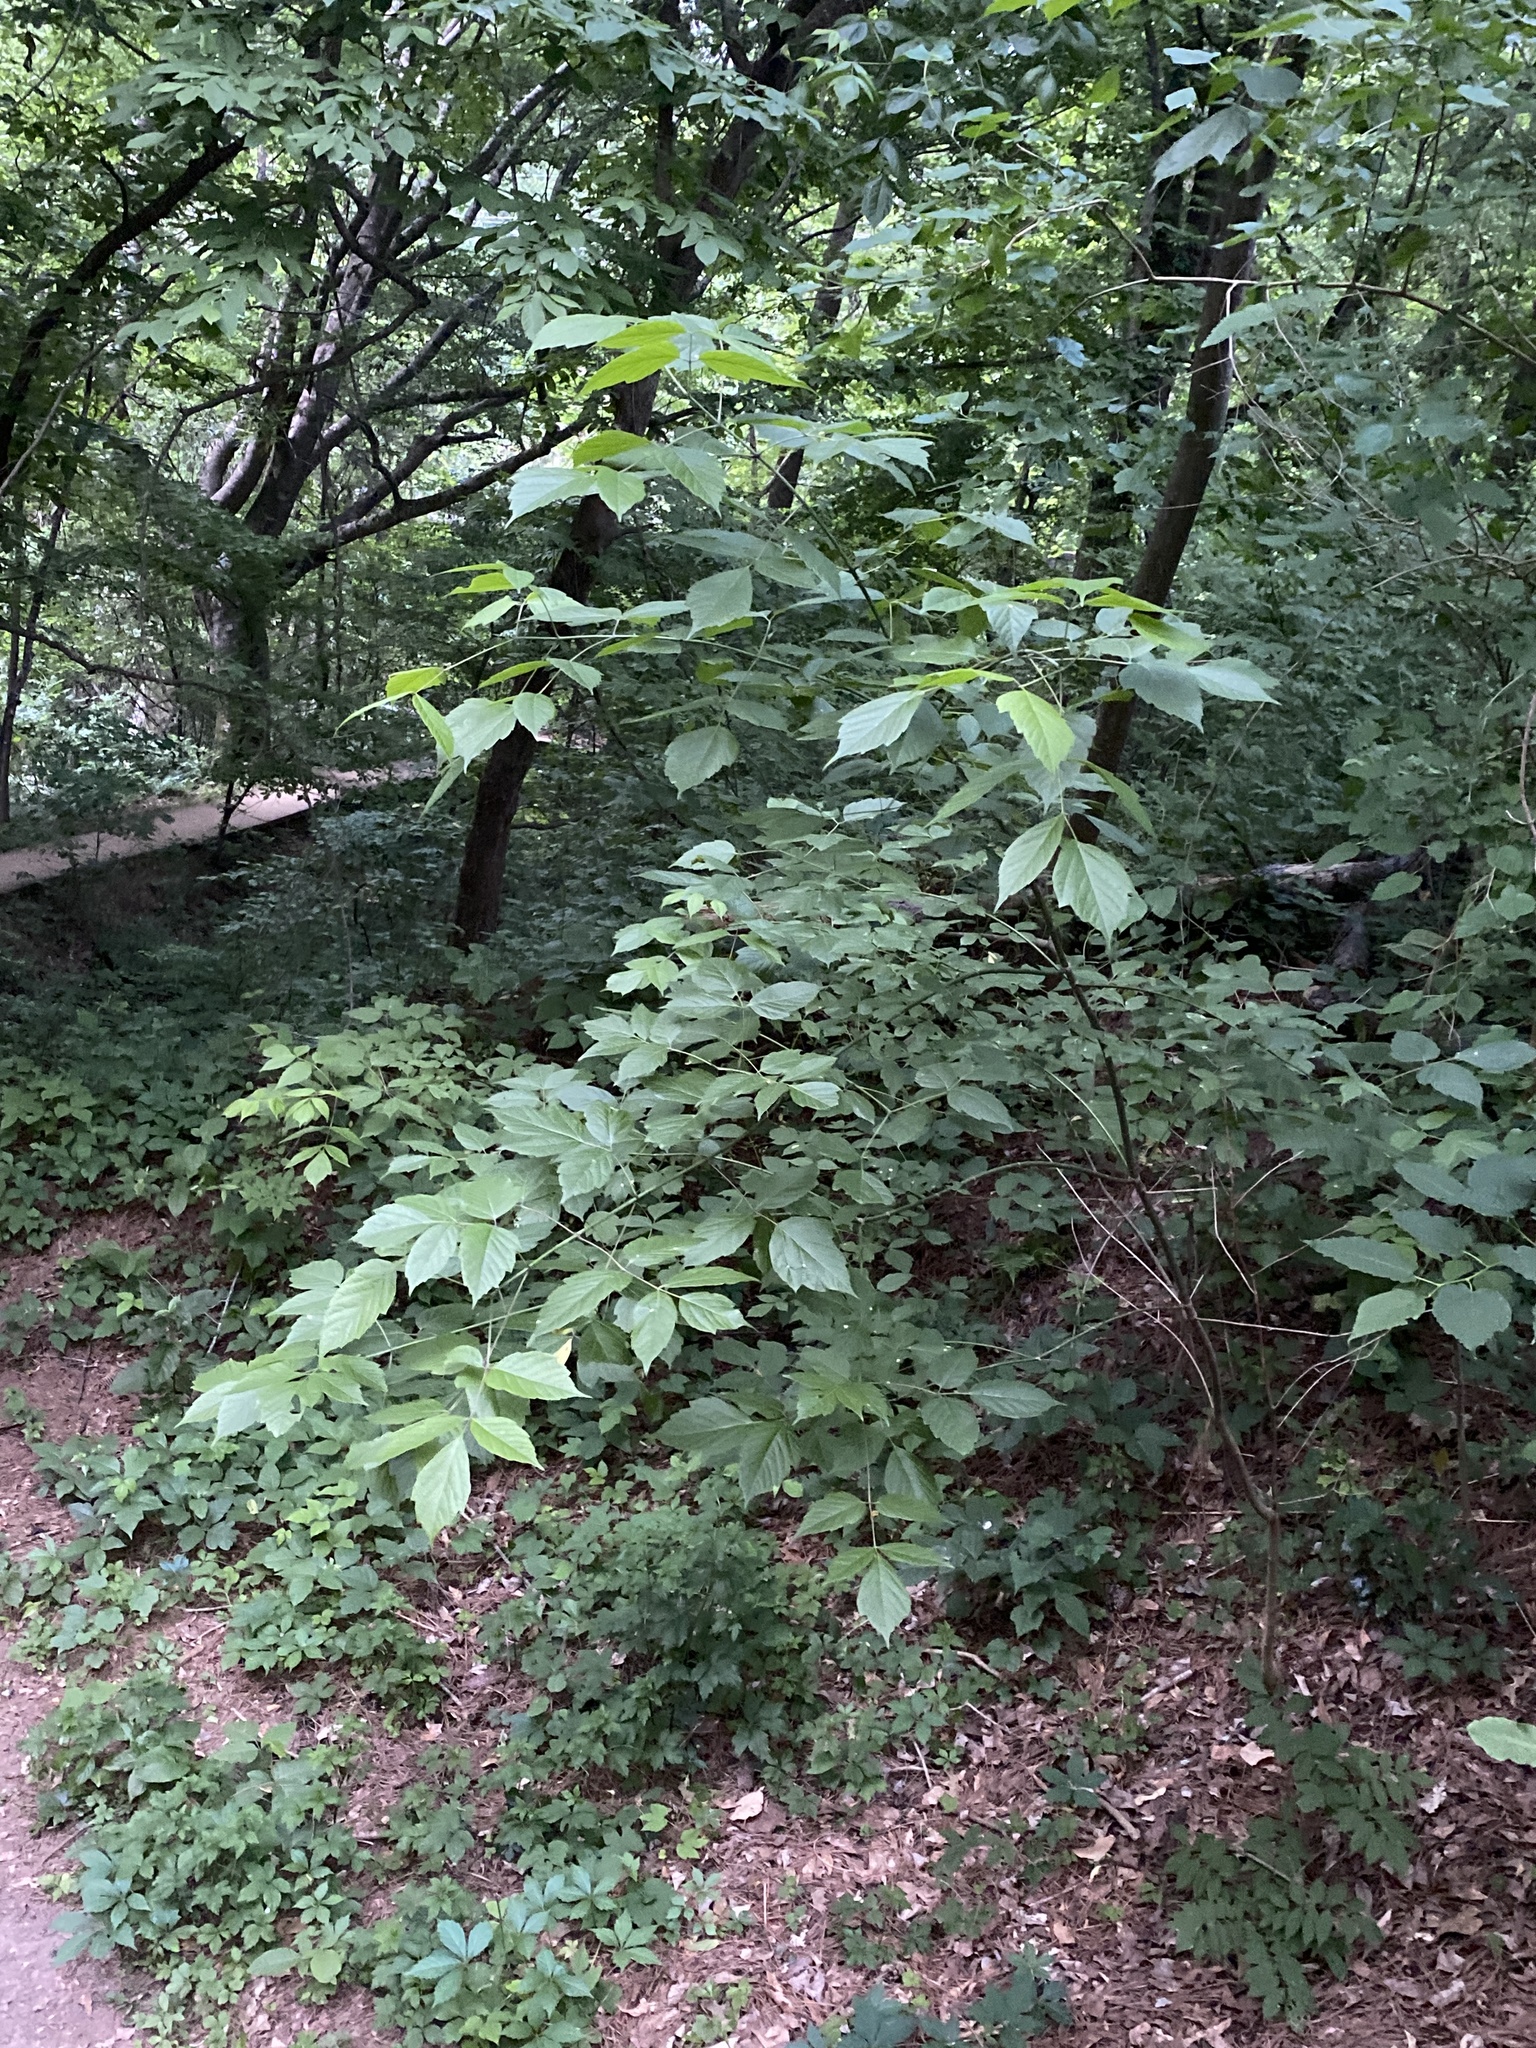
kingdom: Plantae
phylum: Tracheophyta
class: Magnoliopsida
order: Sapindales
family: Sapindaceae
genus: Acer
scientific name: Acer negundo
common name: Ashleaf maple
